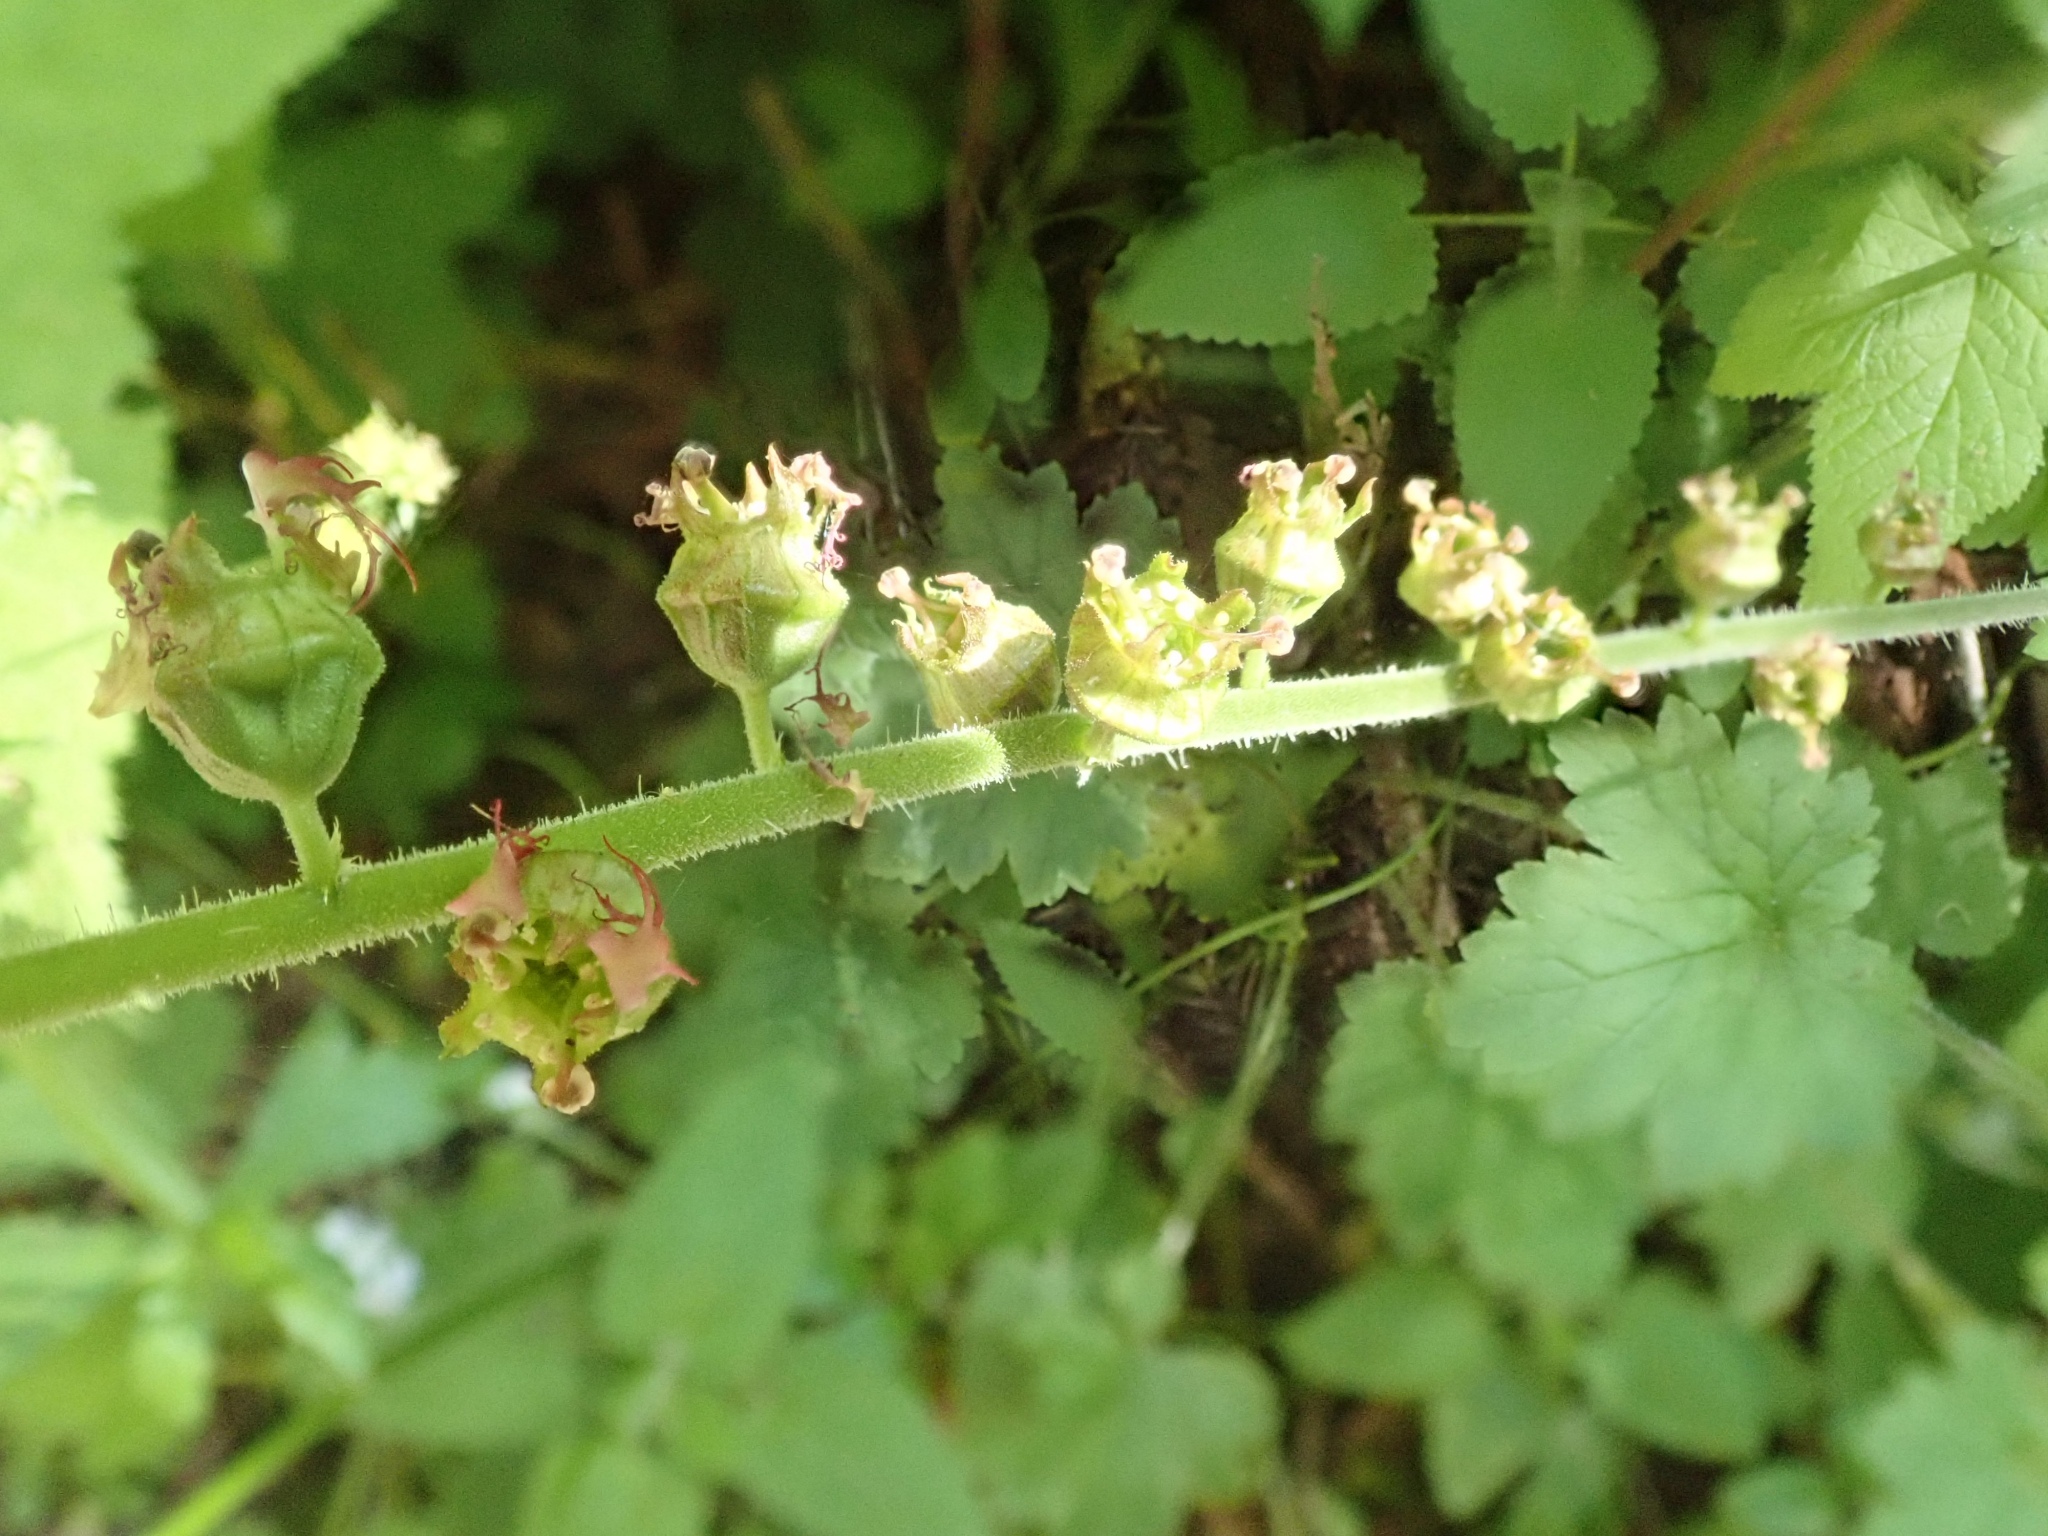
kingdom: Plantae
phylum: Tracheophyta
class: Magnoliopsida
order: Saxifragales
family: Saxifragaceae
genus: Tellima
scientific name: Tellima grandiflora
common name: Fringecups
